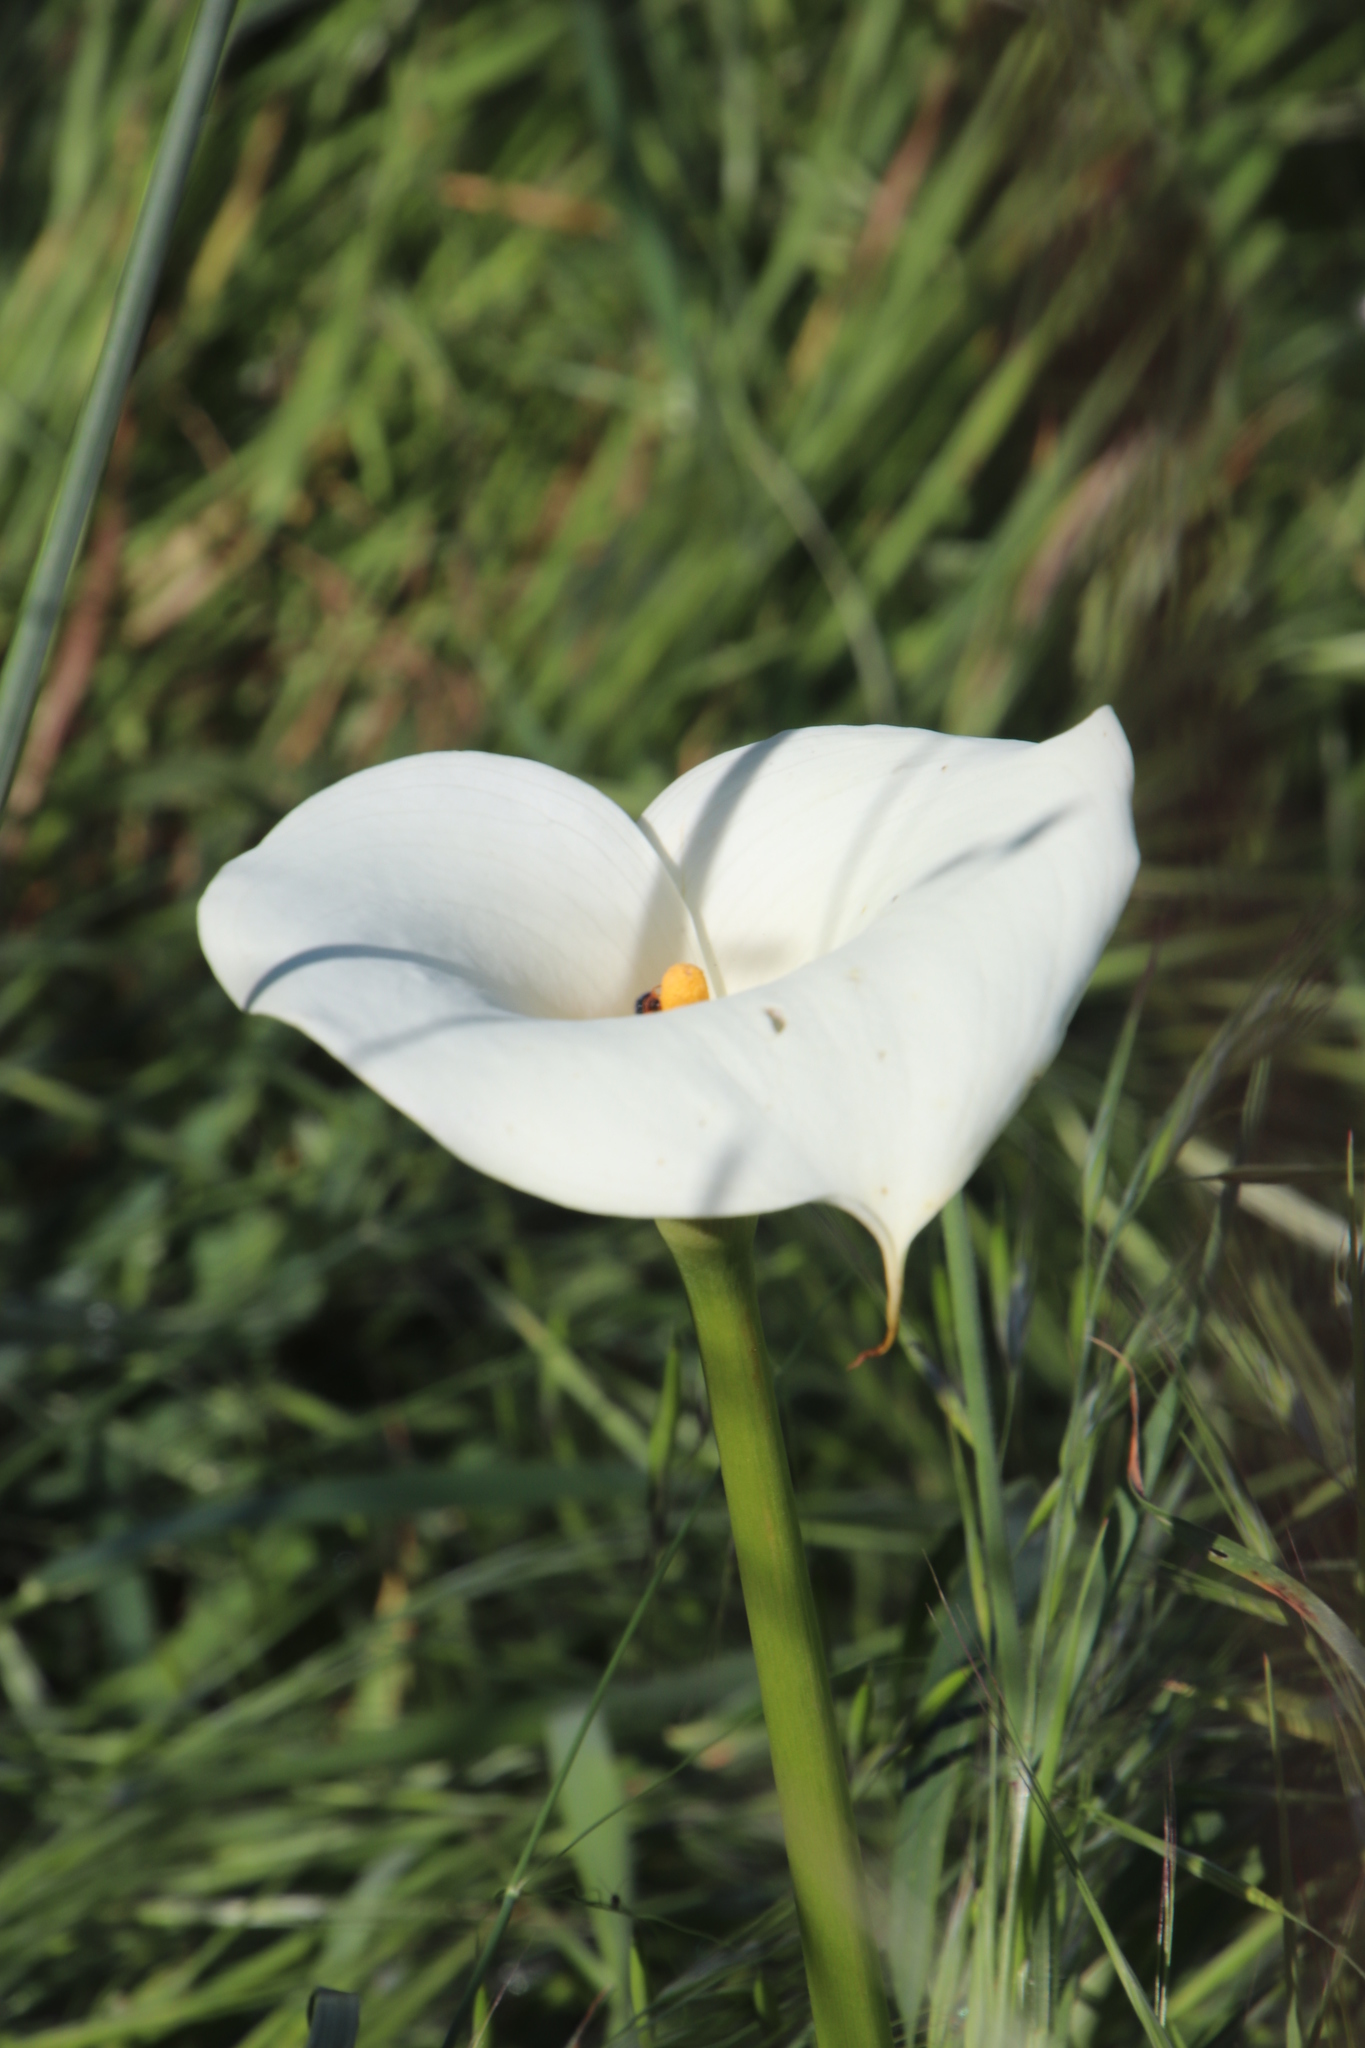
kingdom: Plantae
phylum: Tracheophyta
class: Liliopsida
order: Alismatales
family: Araceae
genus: Zantedeschia
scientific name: Zantedeschia aethiopica
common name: Altar-lily
